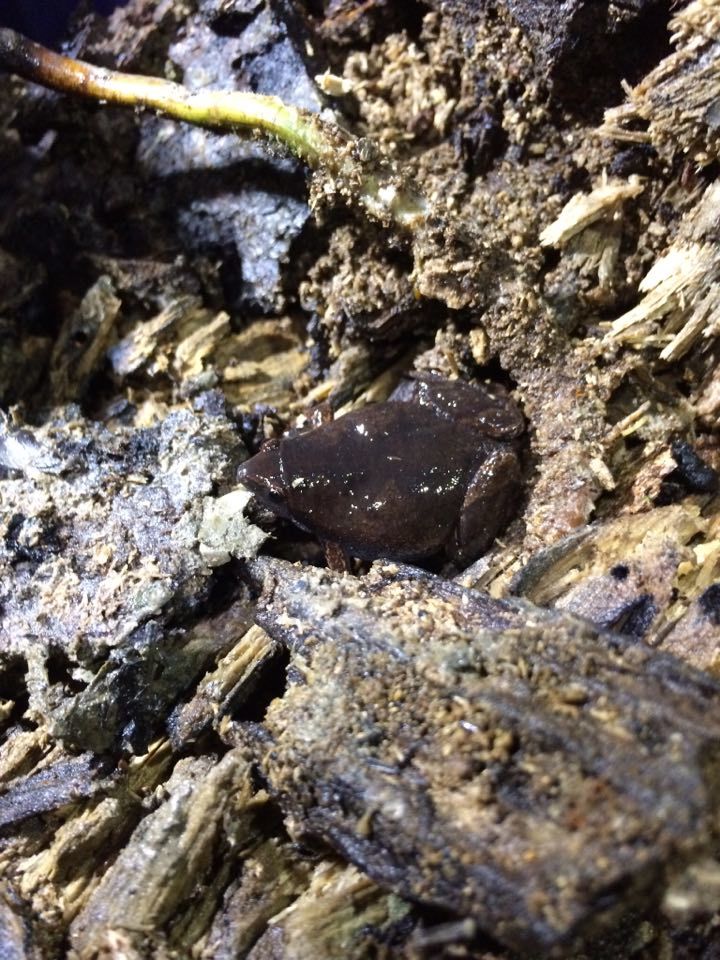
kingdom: Animalia
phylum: Chordata
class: Amphibia
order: Anura
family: Microhylidae
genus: Gastrophryne
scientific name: Gastrophryne elegans
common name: Elegant narrowmouth toad
